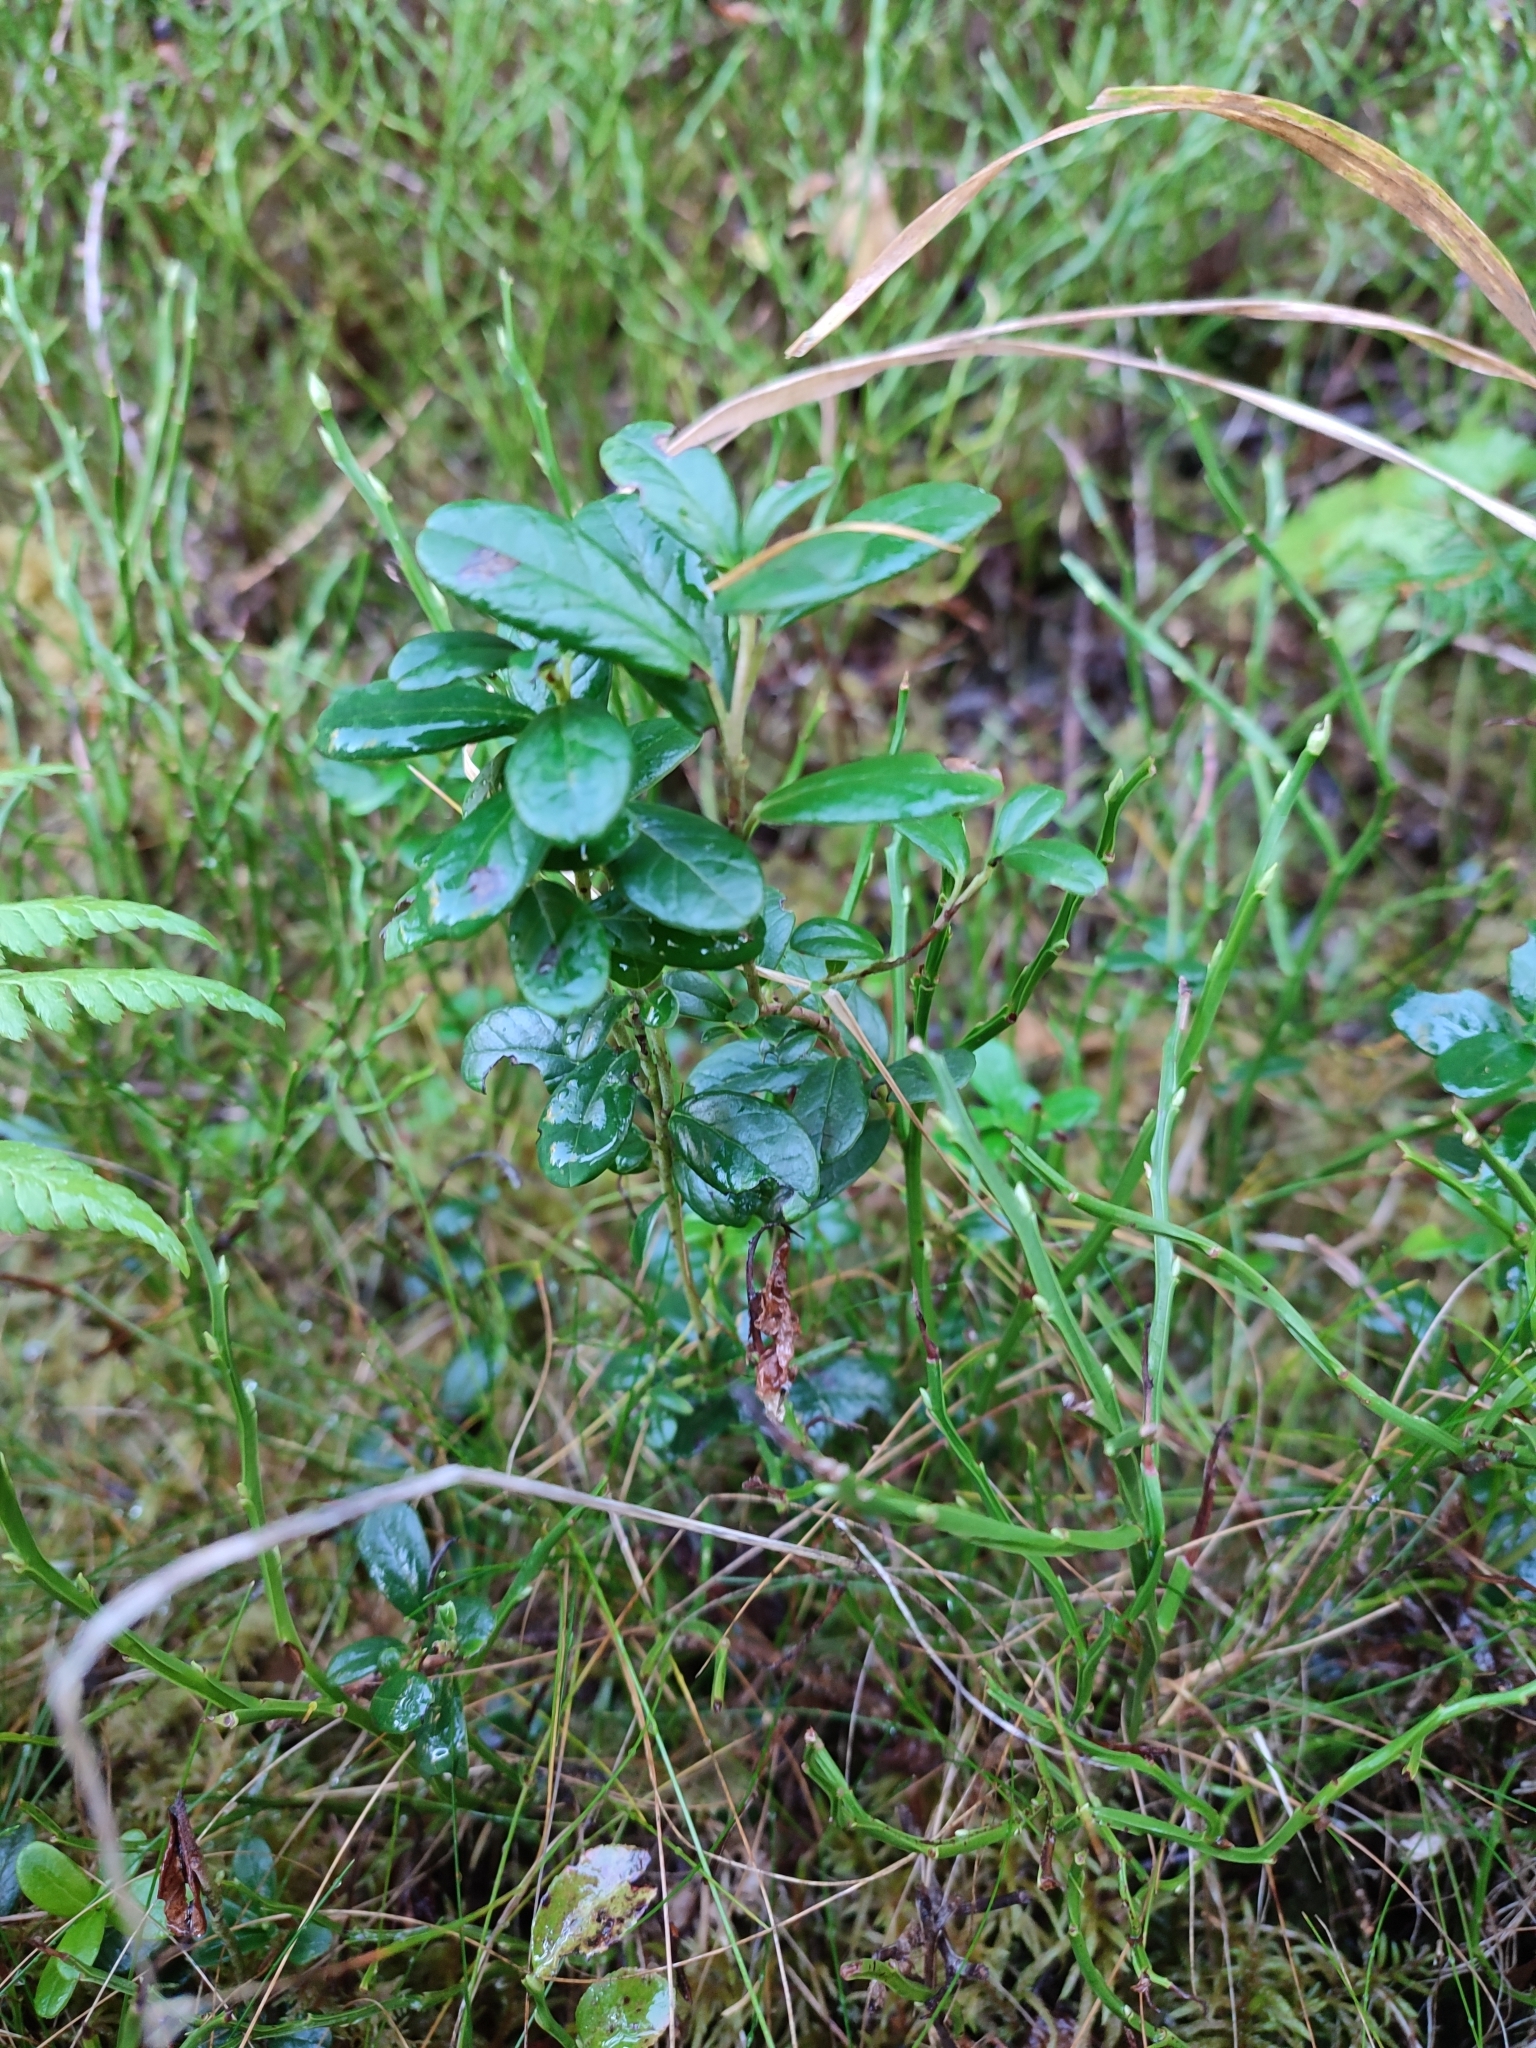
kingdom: Plantae
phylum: Tracheophyta
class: Magnoliopsida
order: Ericales
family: Ericaceae
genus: Vaccinium
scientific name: Vaccinium vitis-idaea
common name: Cowberry
